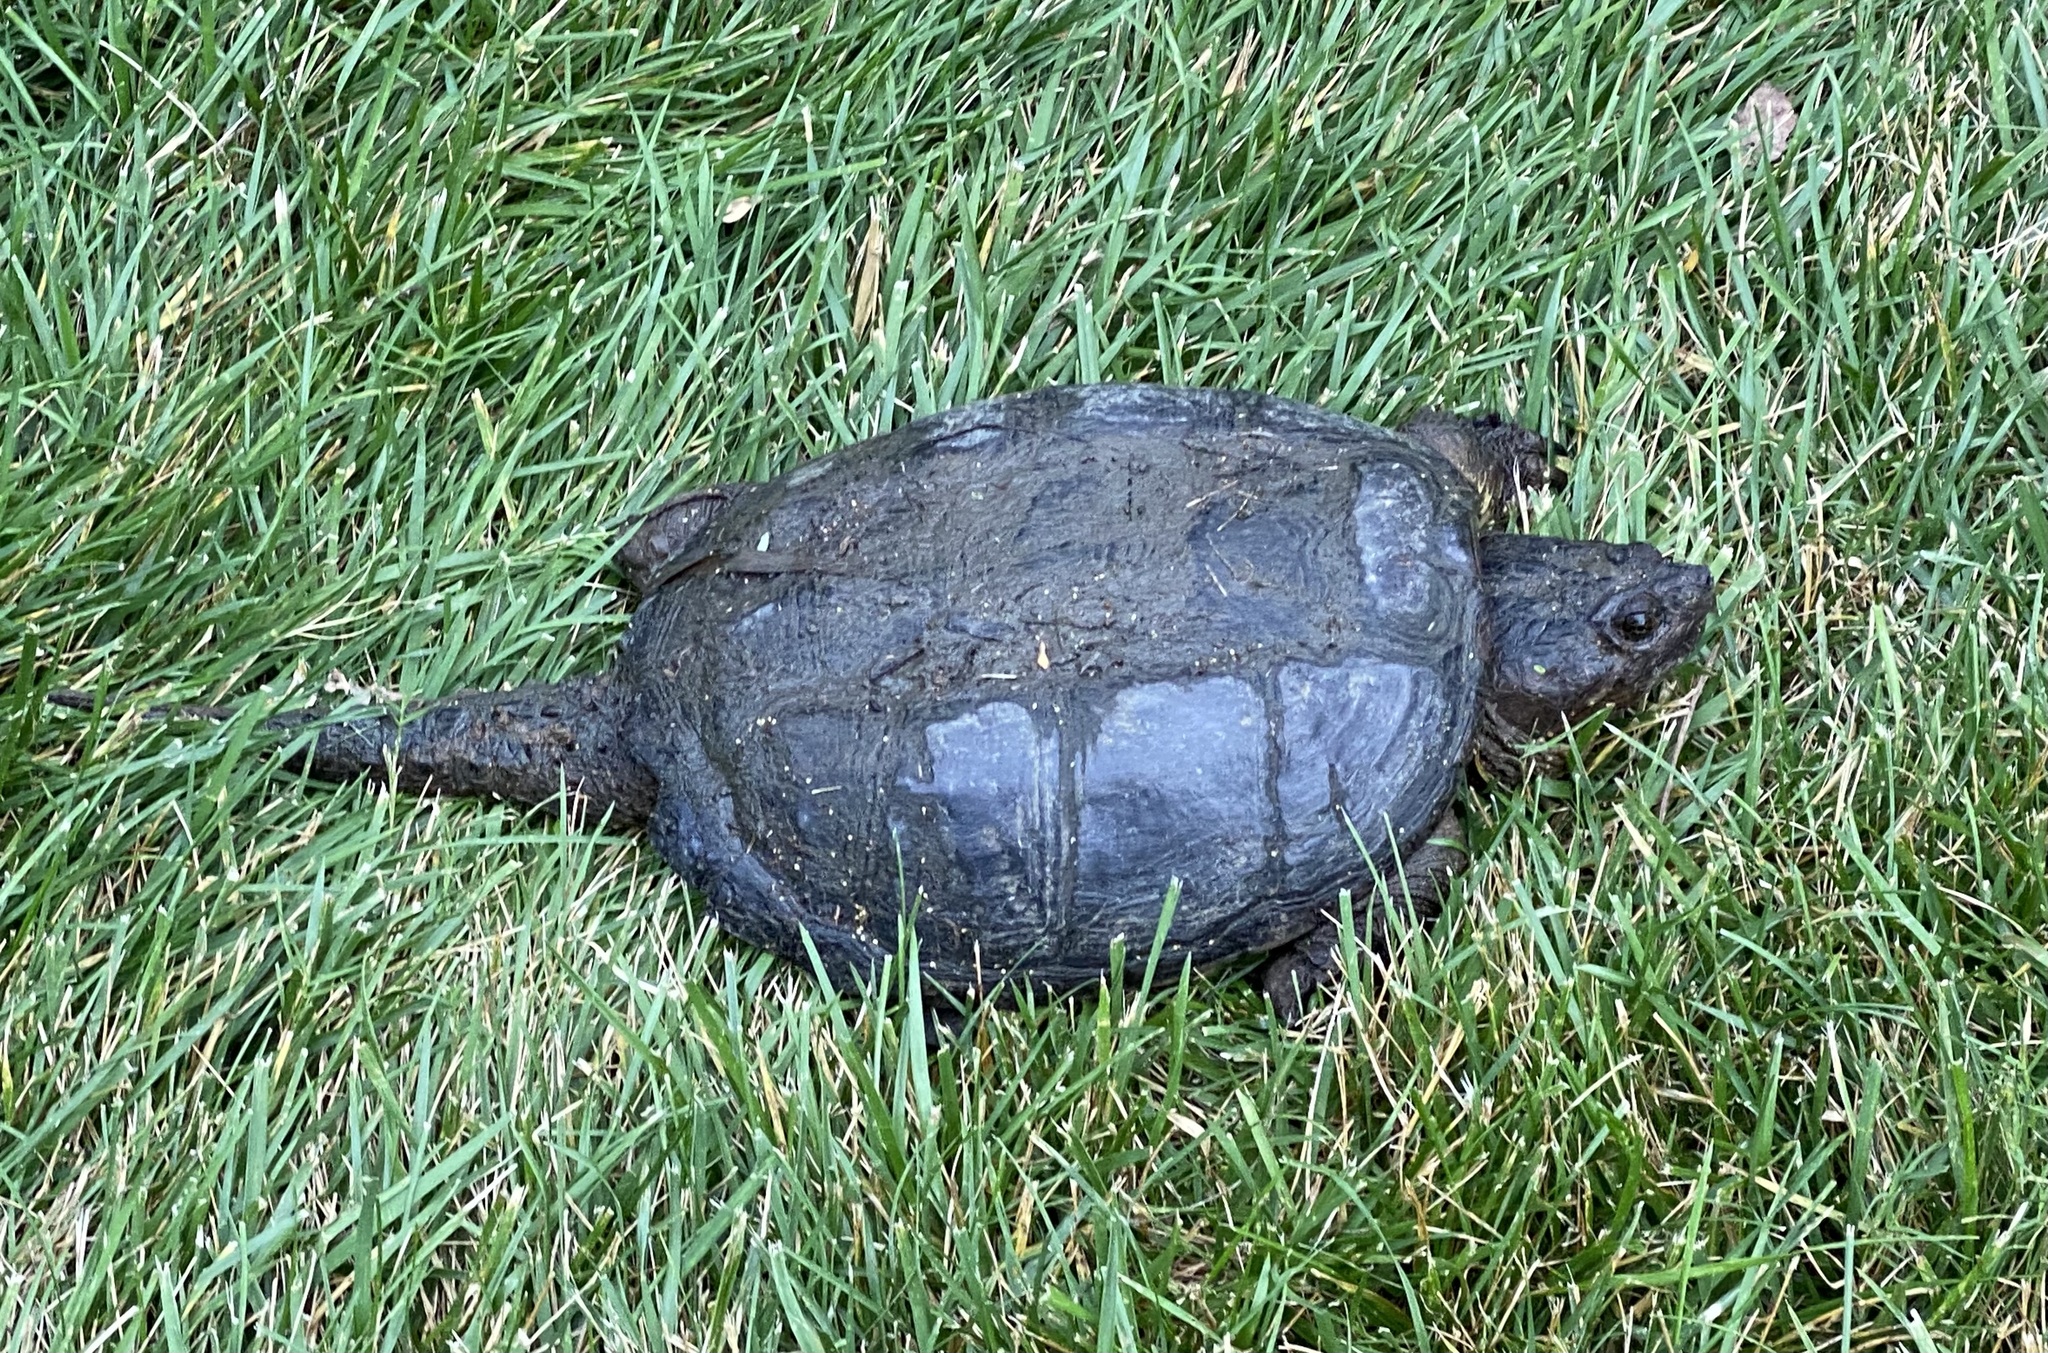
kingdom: Animalia
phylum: Chordata
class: Testudines
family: Chelydridae
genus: Chelydra
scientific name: Chelydra serpentina
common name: Common snapping turtle
